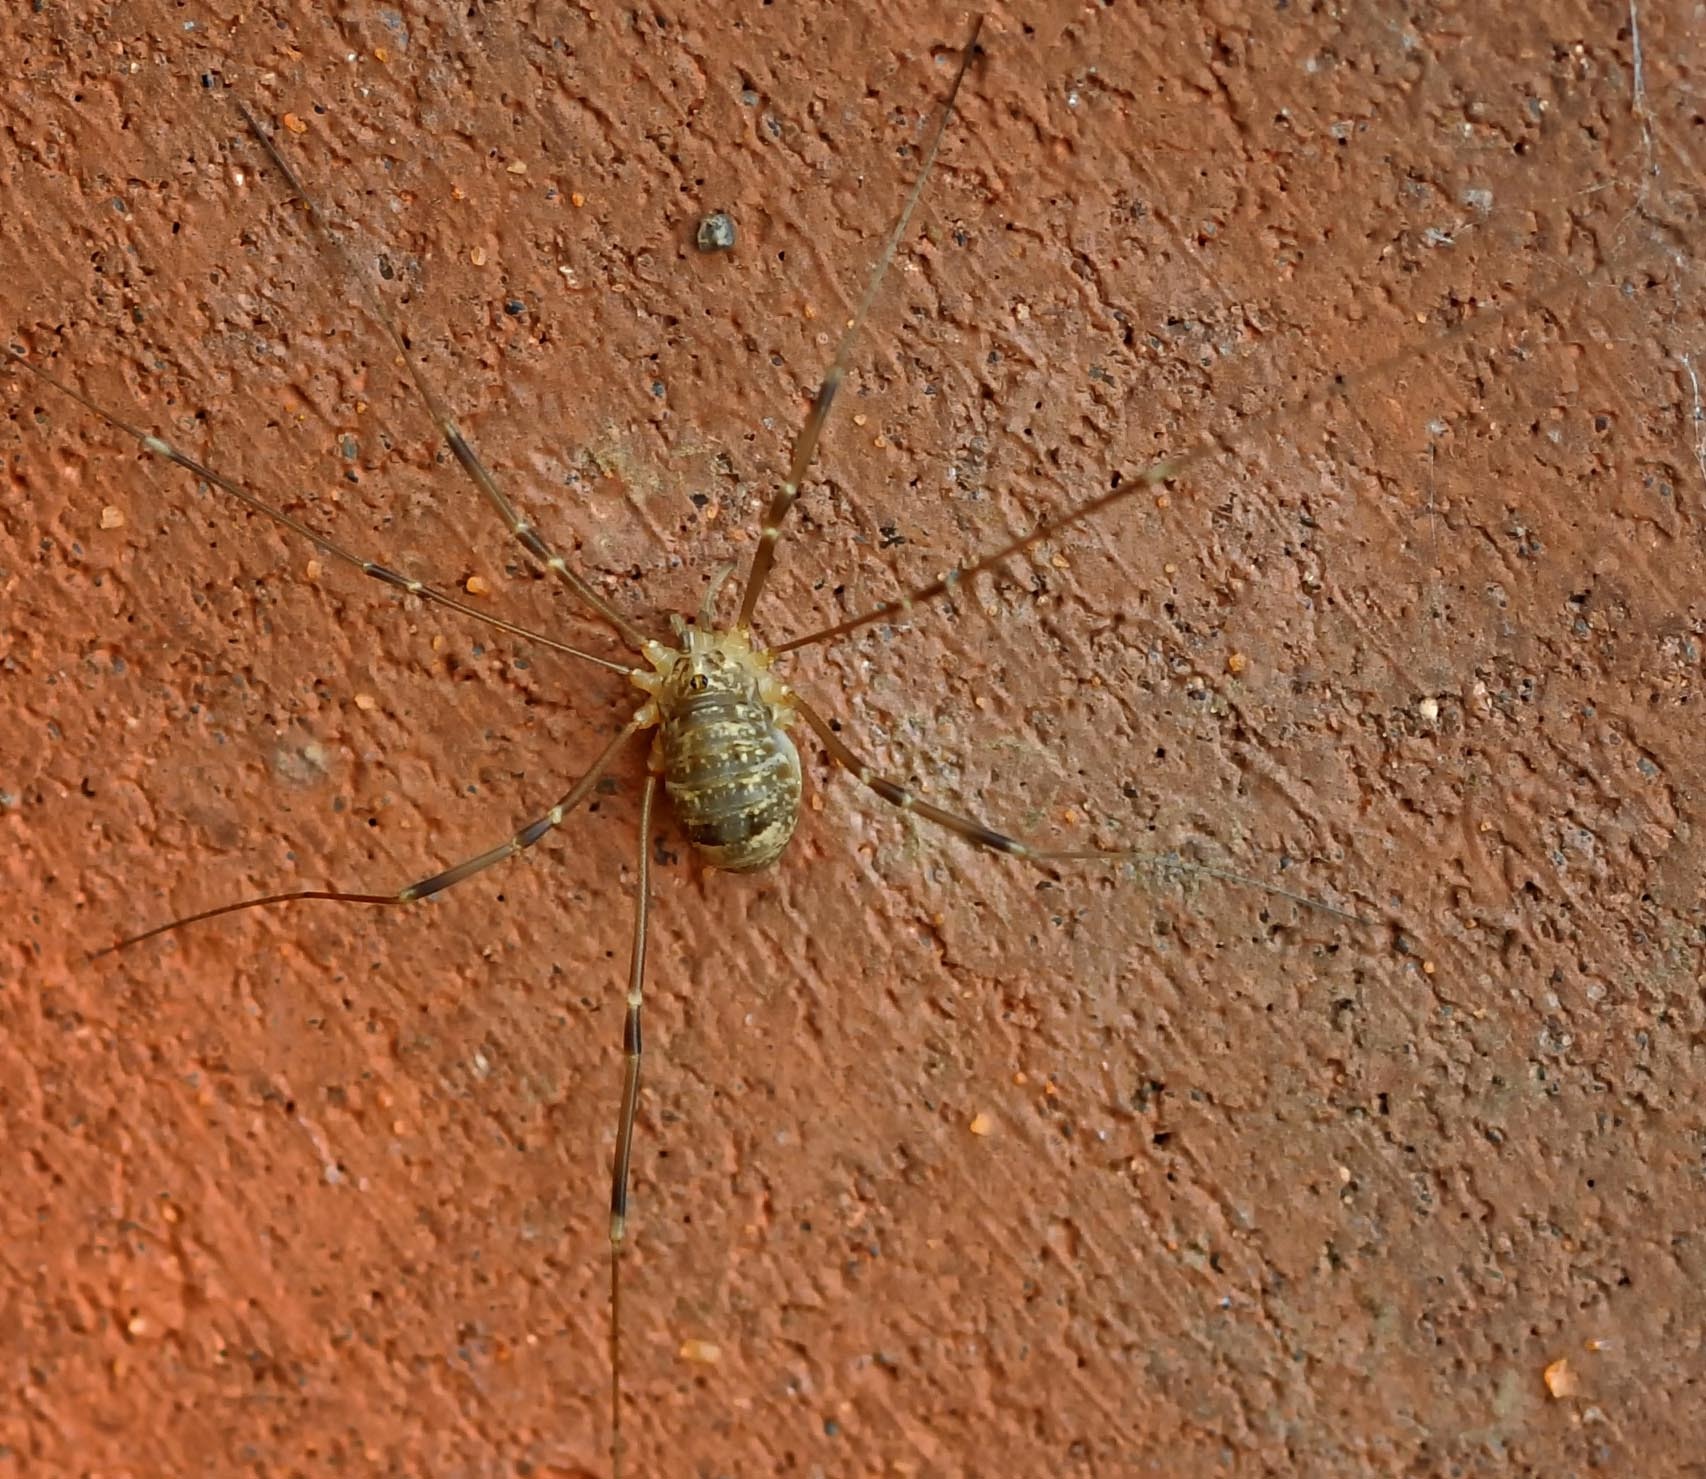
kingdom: Animalia
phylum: Arthropoda
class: Arachnida
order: Opiliones
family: Sclerosomatidae
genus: Nelima
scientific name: Nelima gothica
